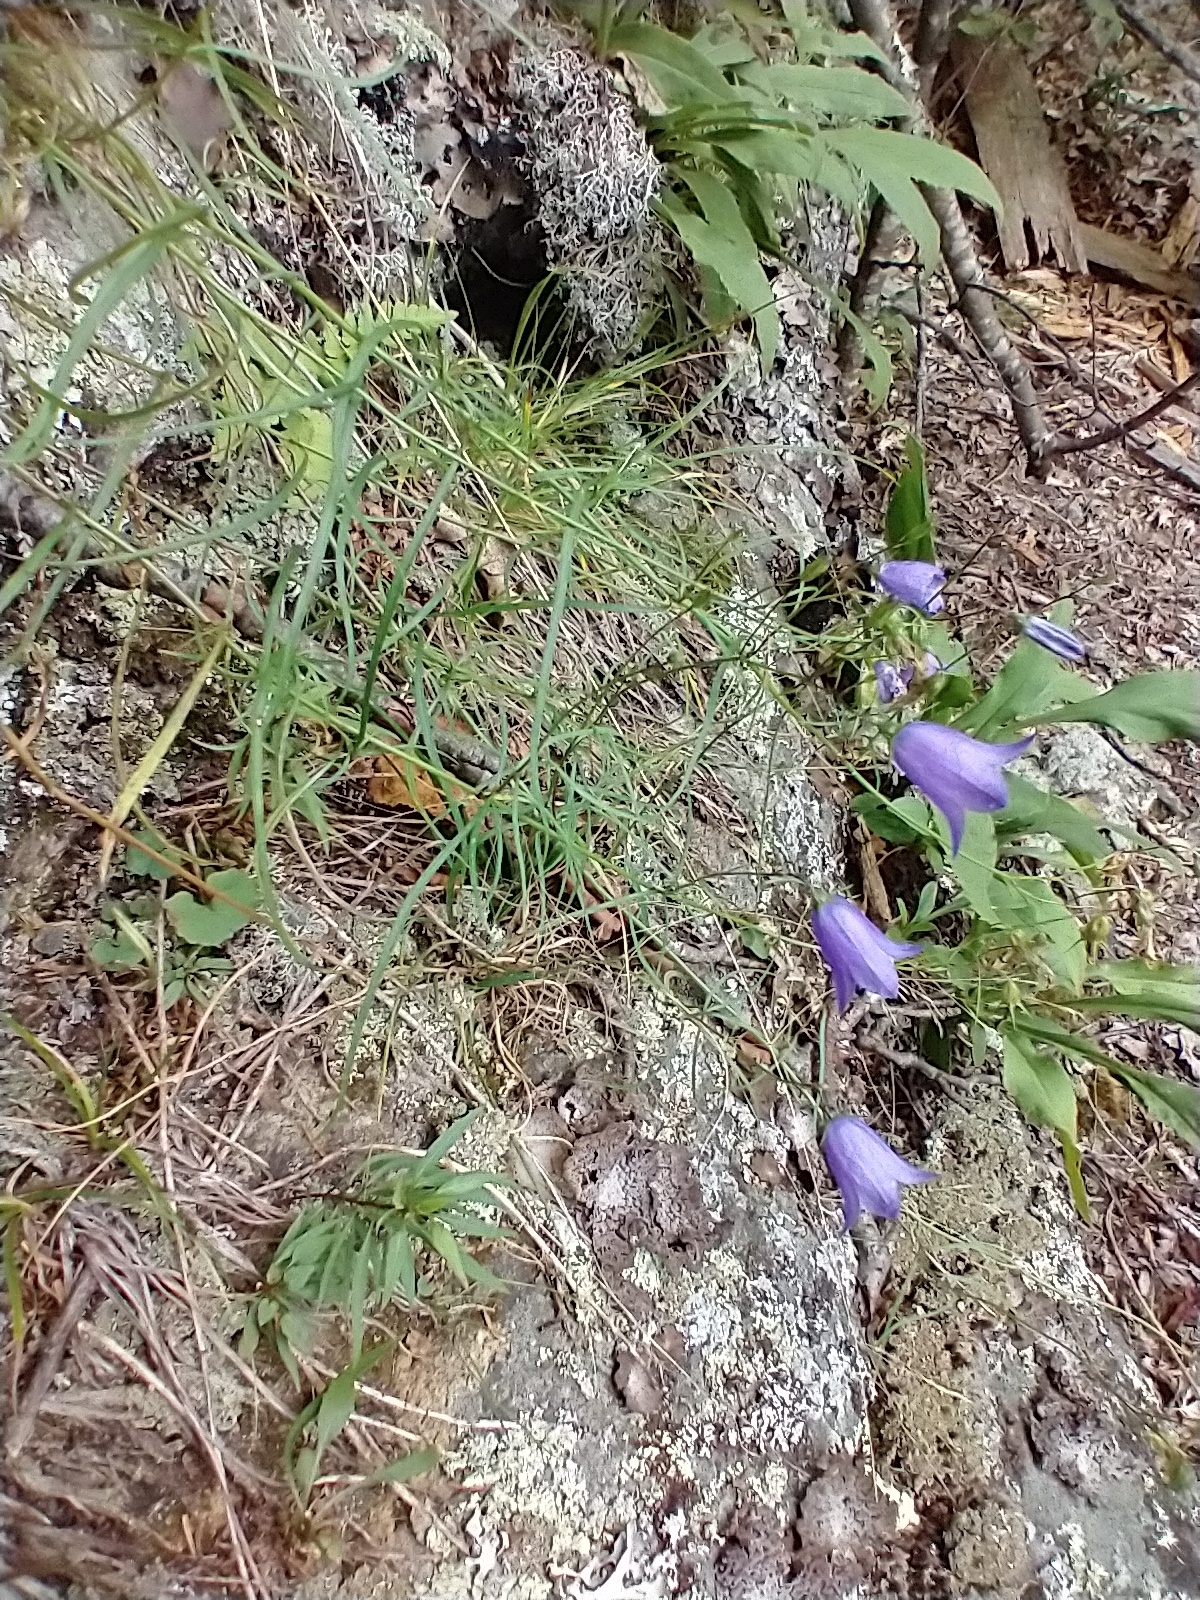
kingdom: Plantae
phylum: Tracheophyta
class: Magnoliopsida
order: Asterales
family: Campanulaceae
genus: Campanula
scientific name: Campanula intercedens
